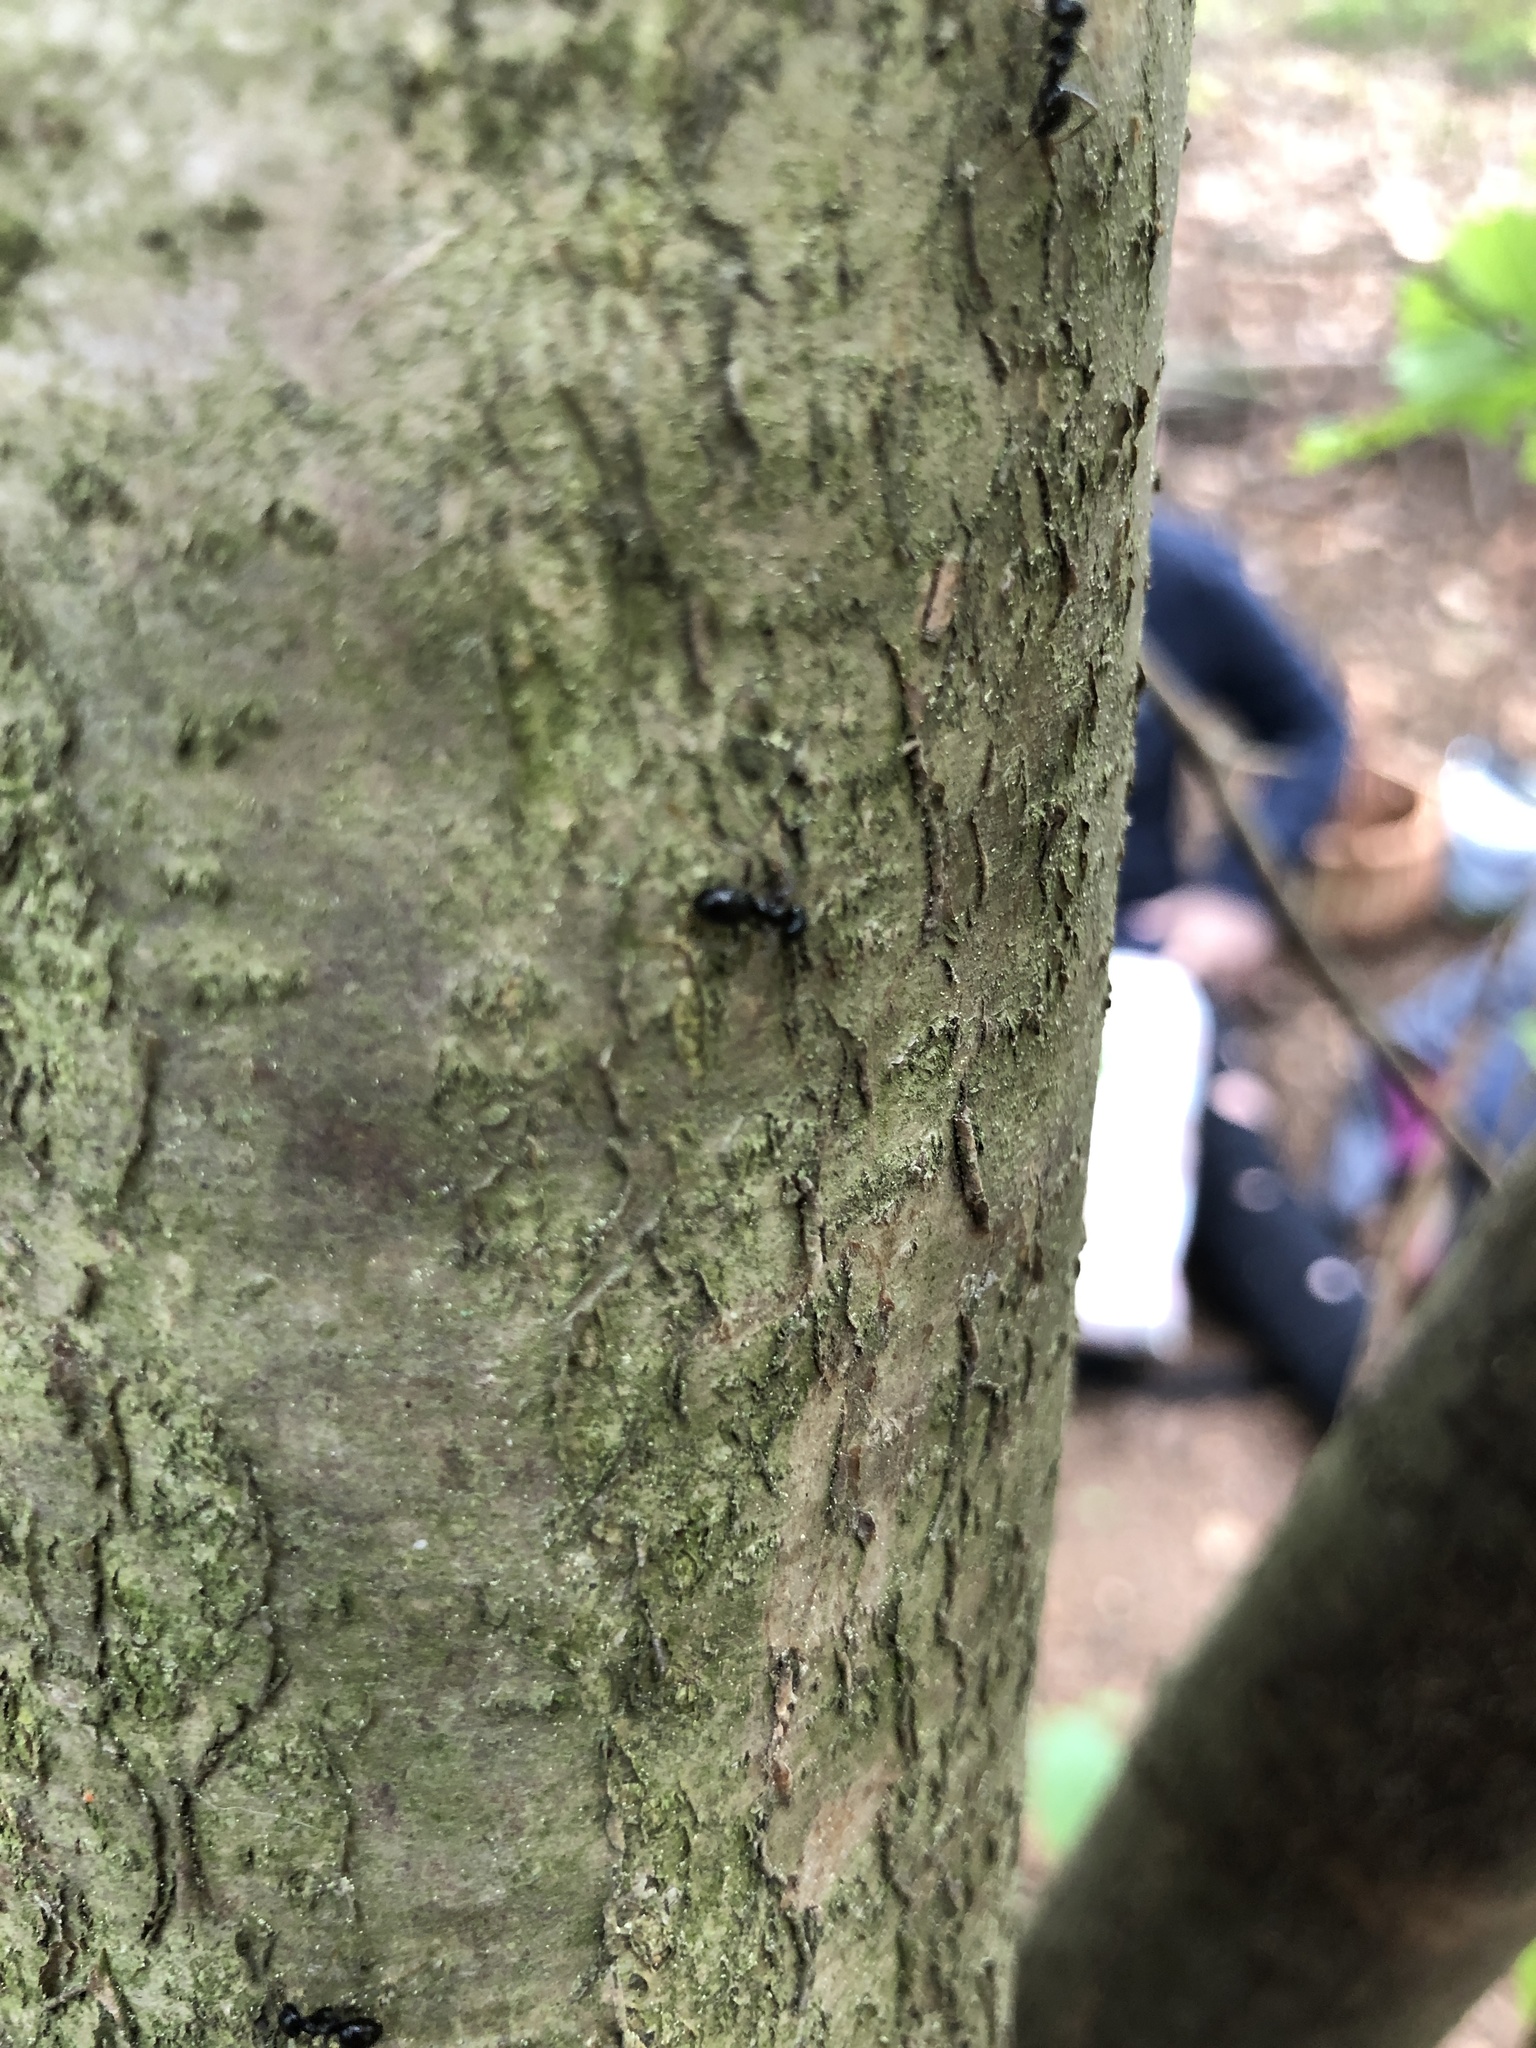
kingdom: Animalia
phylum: Arthropoda
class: Insecta
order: Hymenoptera
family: Formicidae
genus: Lasius
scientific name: Lasius fuliginosus
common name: Jet ant
